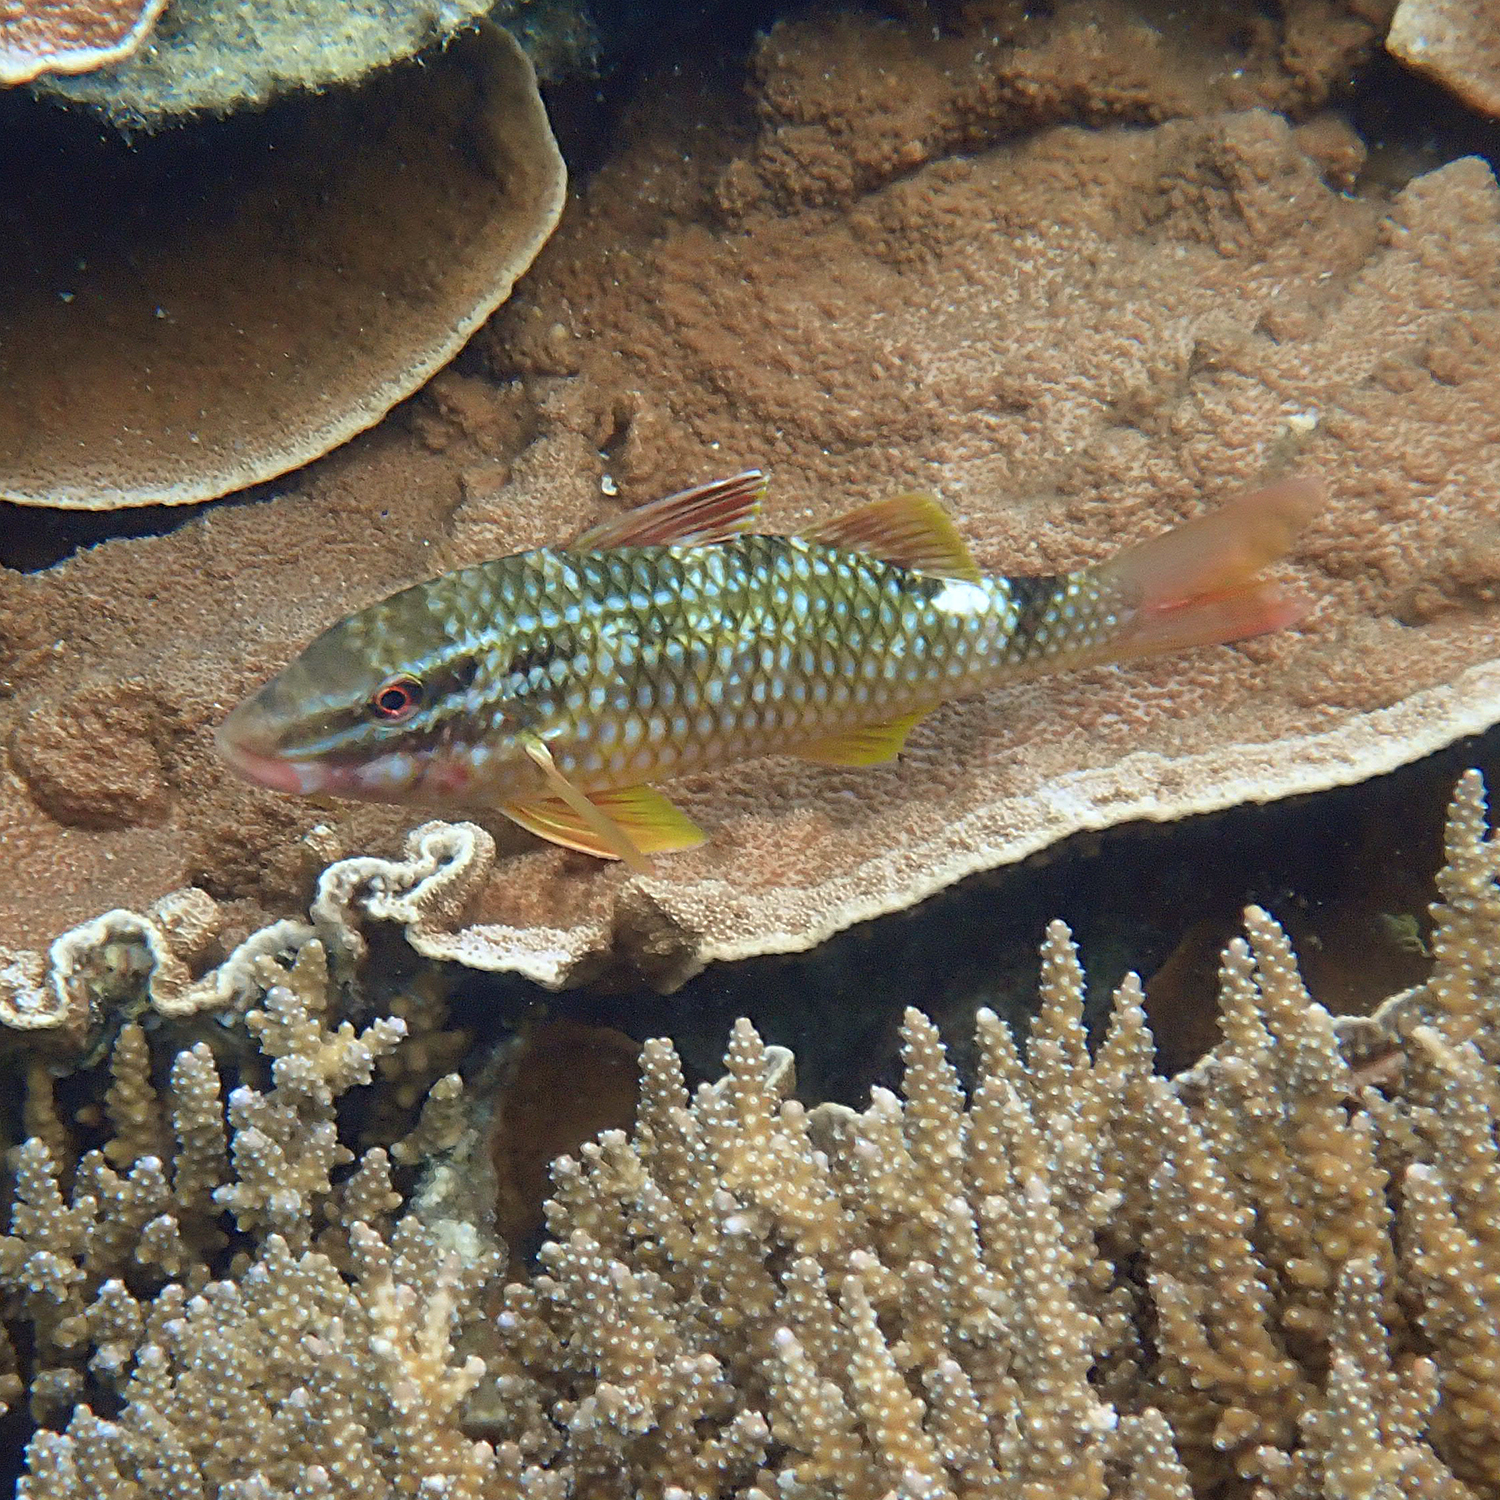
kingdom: Animalia
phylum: Chordata
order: Perciformes
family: Mullidae
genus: Parupeneus
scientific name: Parupeneus ciliatus
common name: White-lined goatfish
